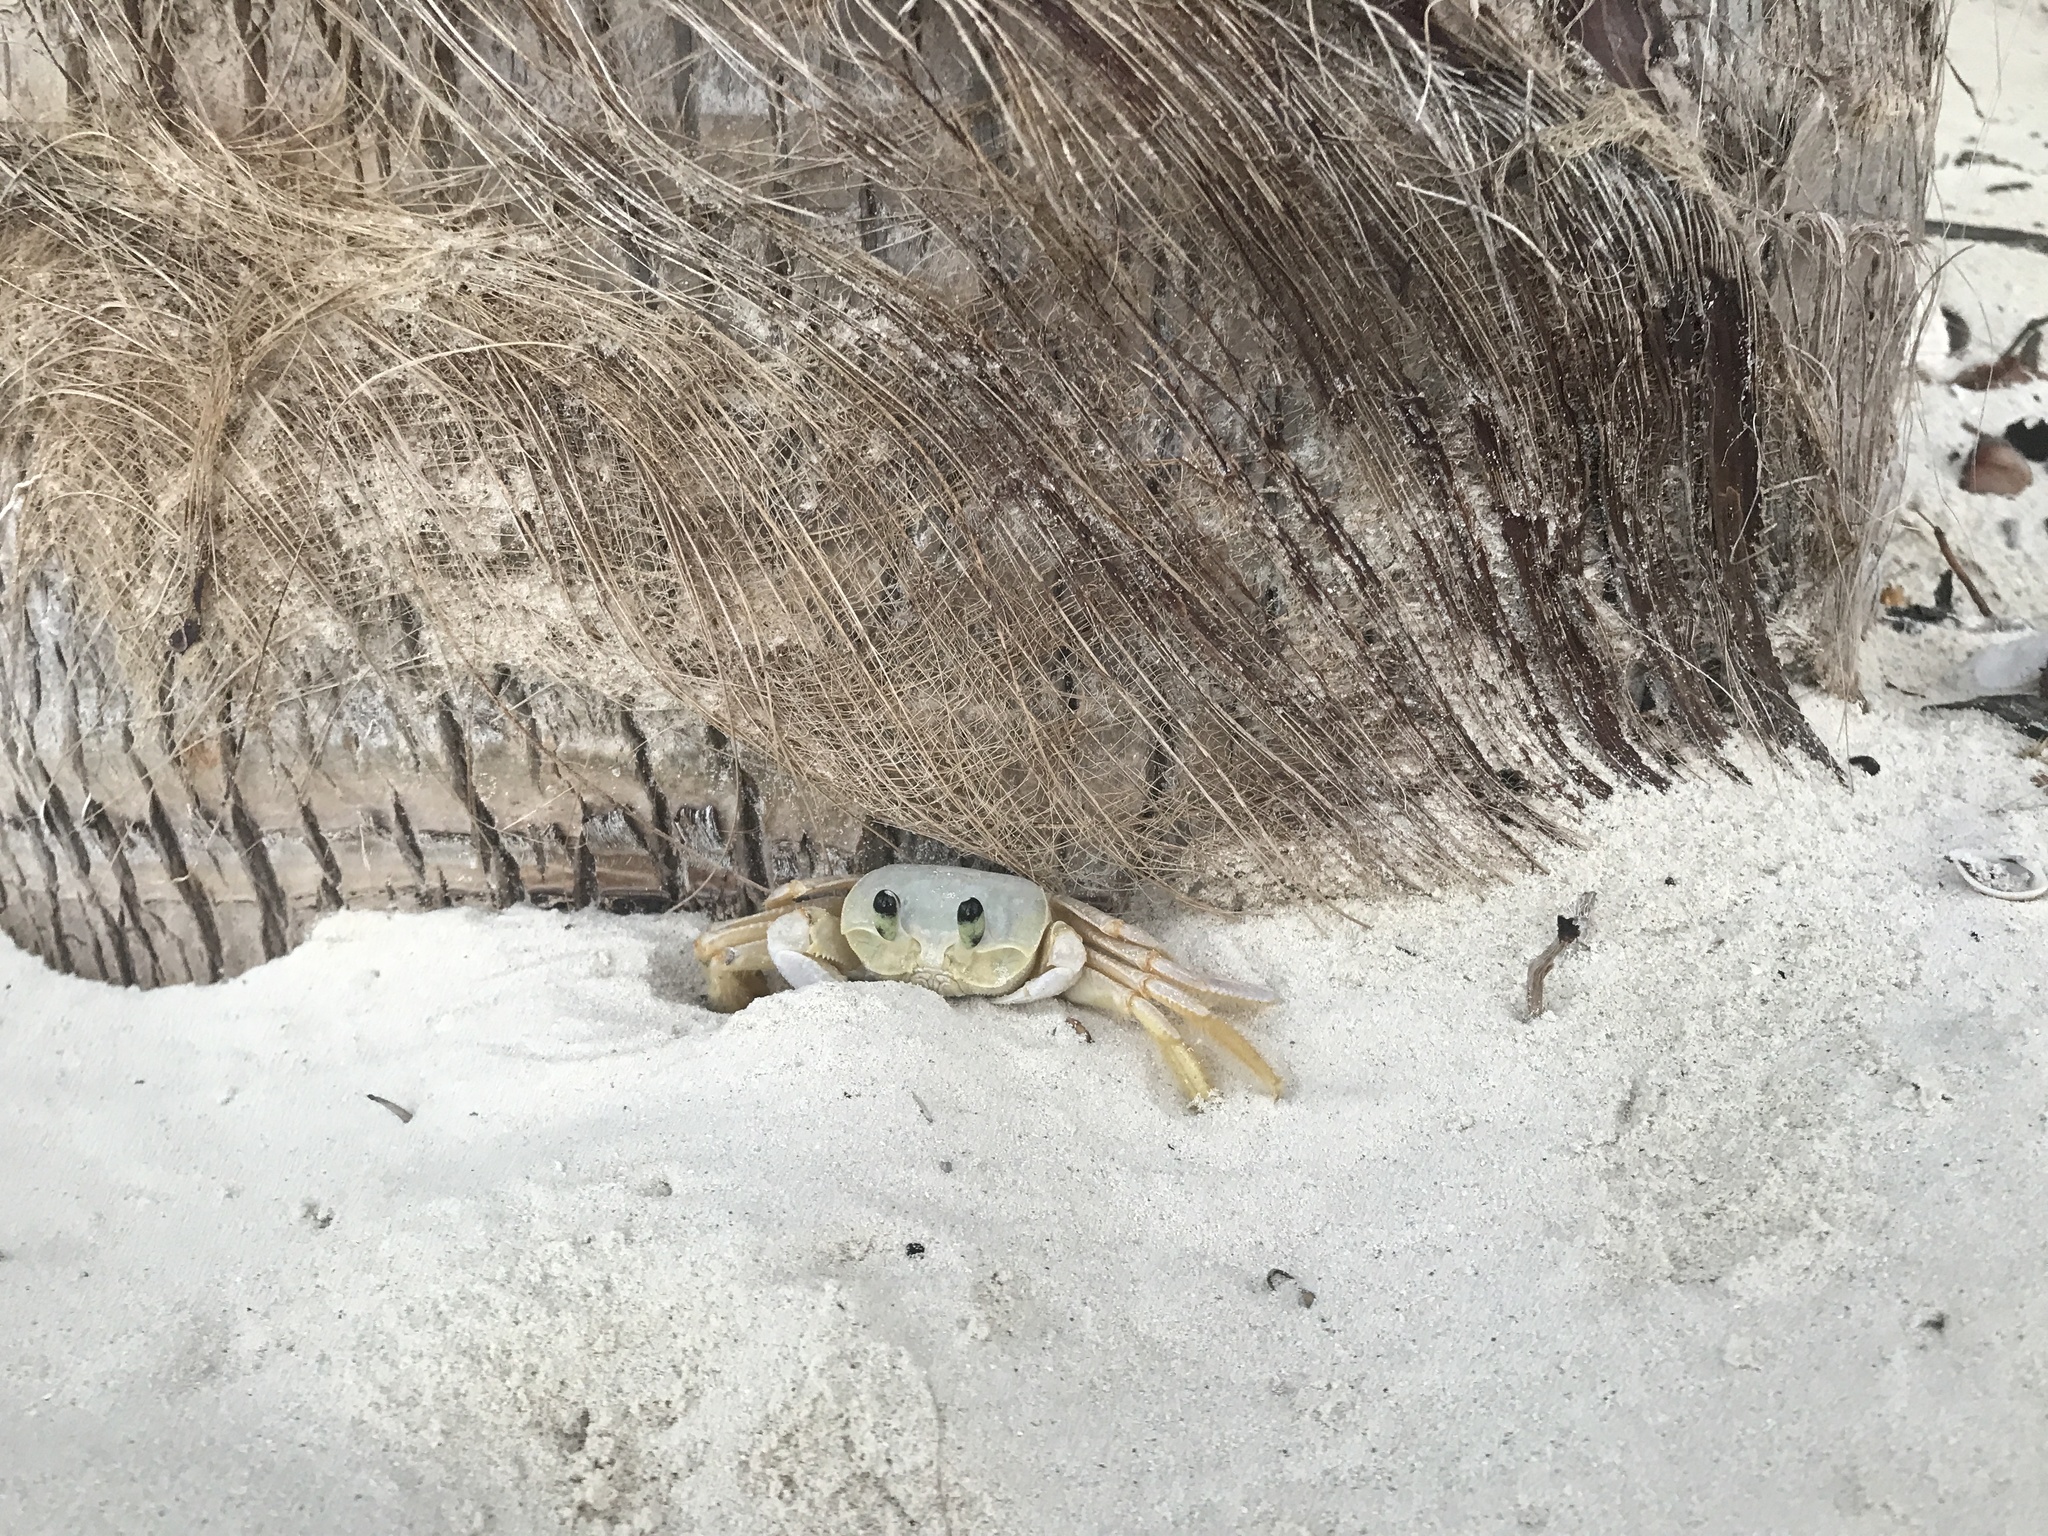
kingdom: Animalia
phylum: Arthropoda
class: Malacostraca
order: Decapoda
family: Ocypodidae
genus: Ocypode
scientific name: Ocypode quadrata
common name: Ghost crab
